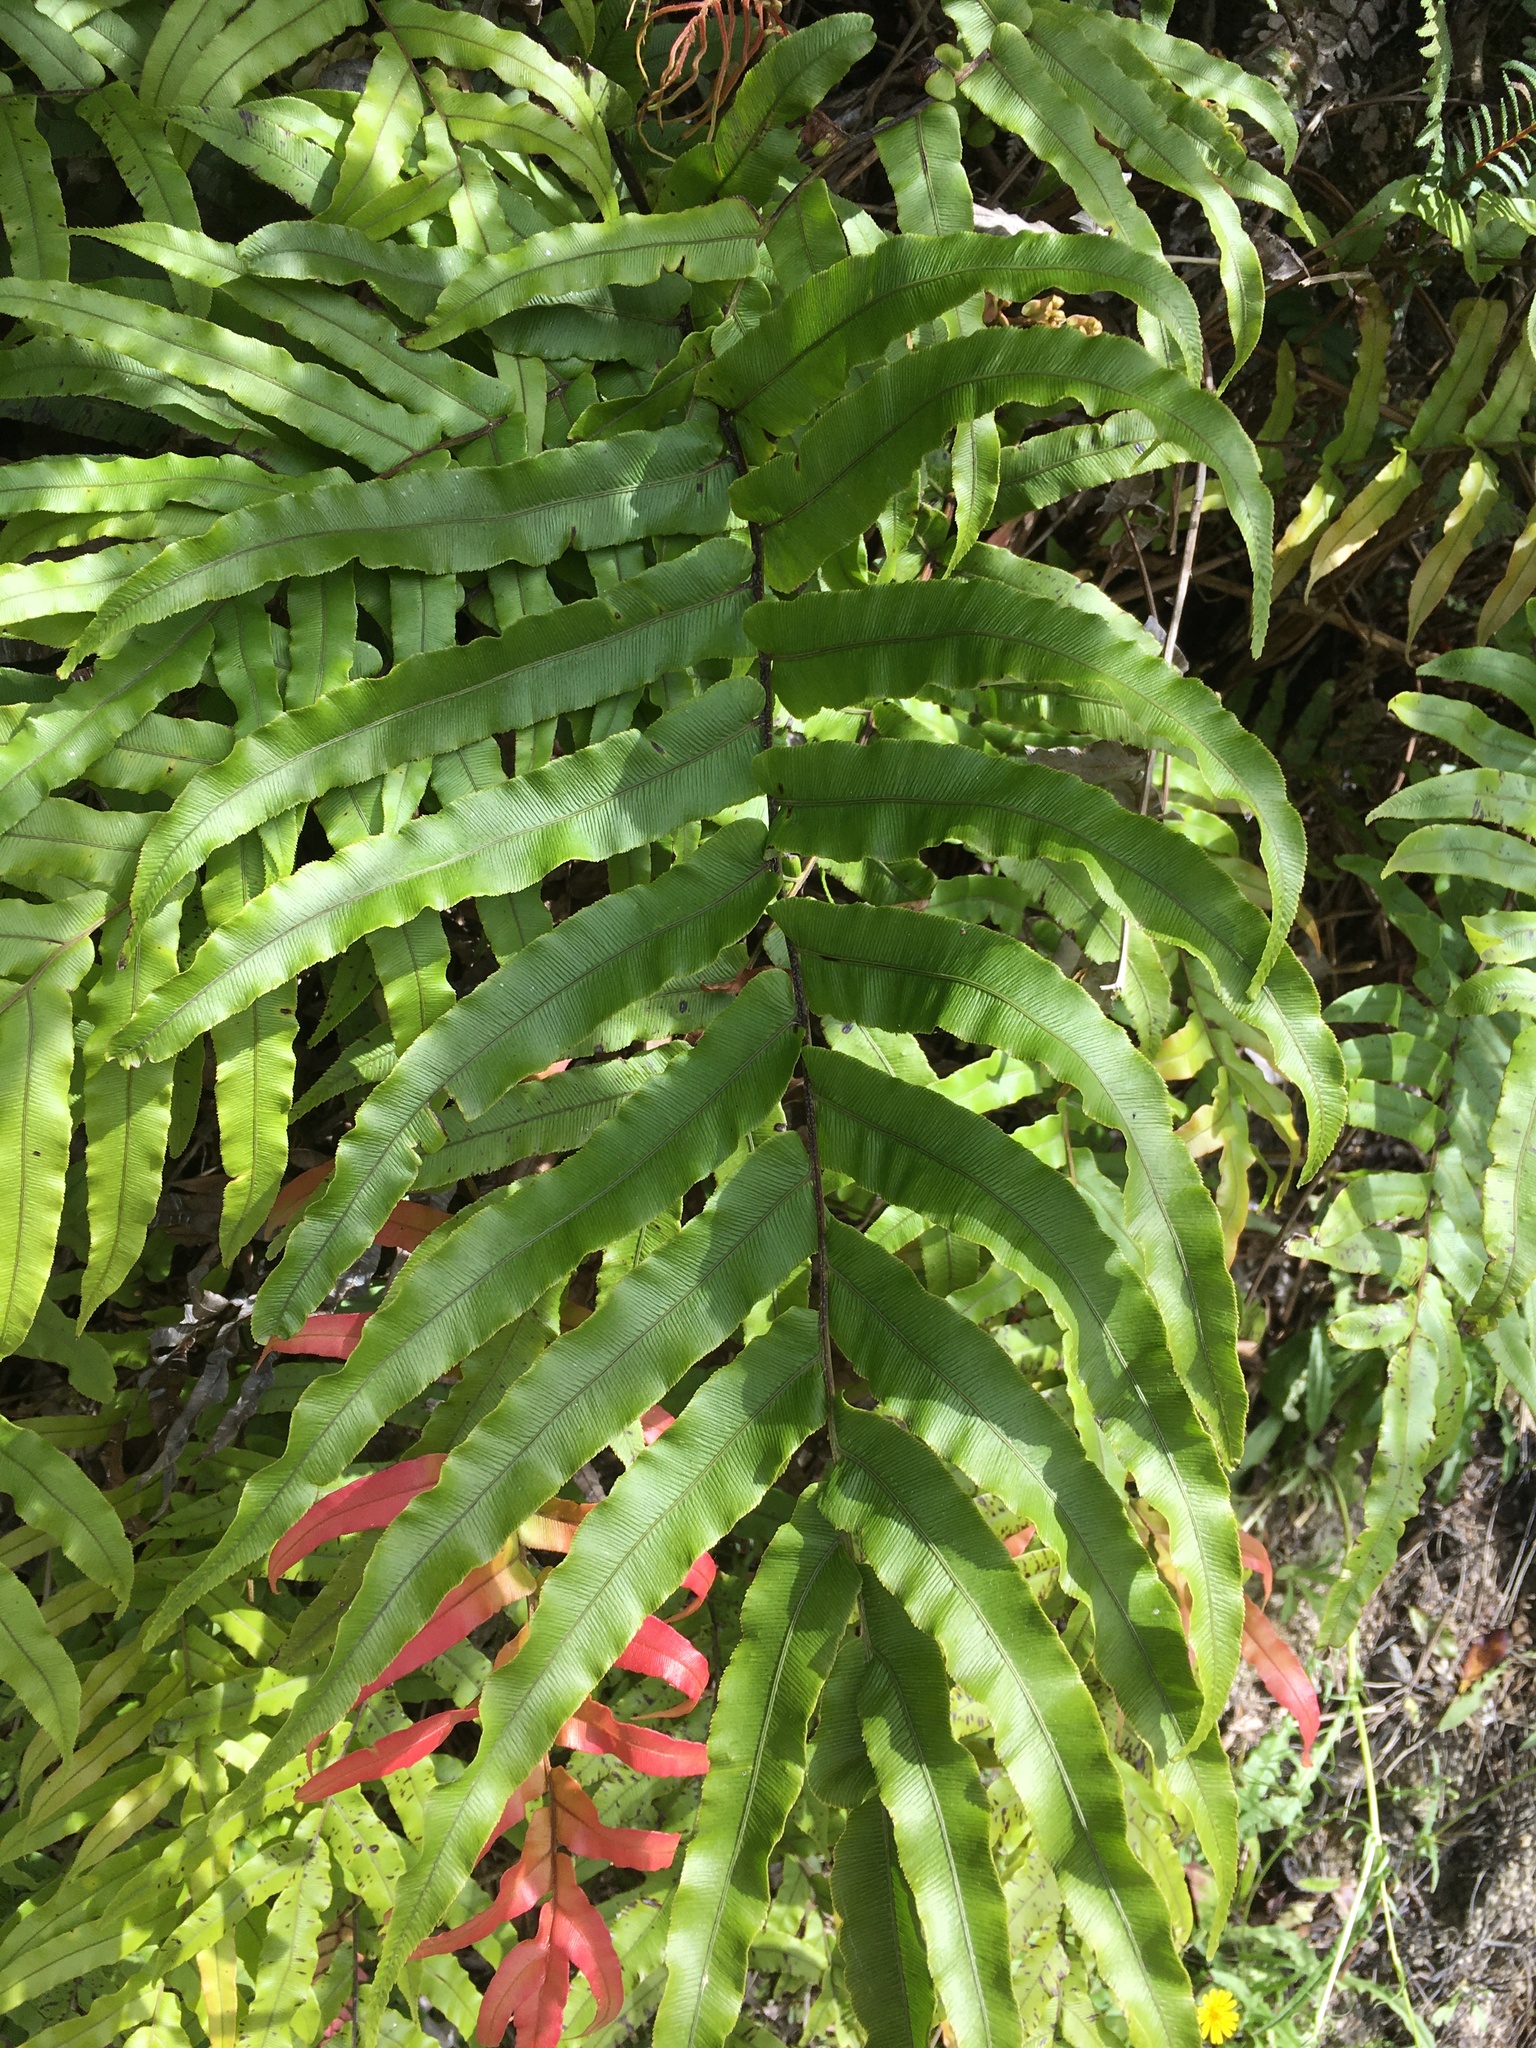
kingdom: Plantae
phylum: Tracheophyta
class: Polypodiopsida
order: Polypodiales
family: Blechnaceae
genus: Parablechnum
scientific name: Parablechnum novae-zelandiae
